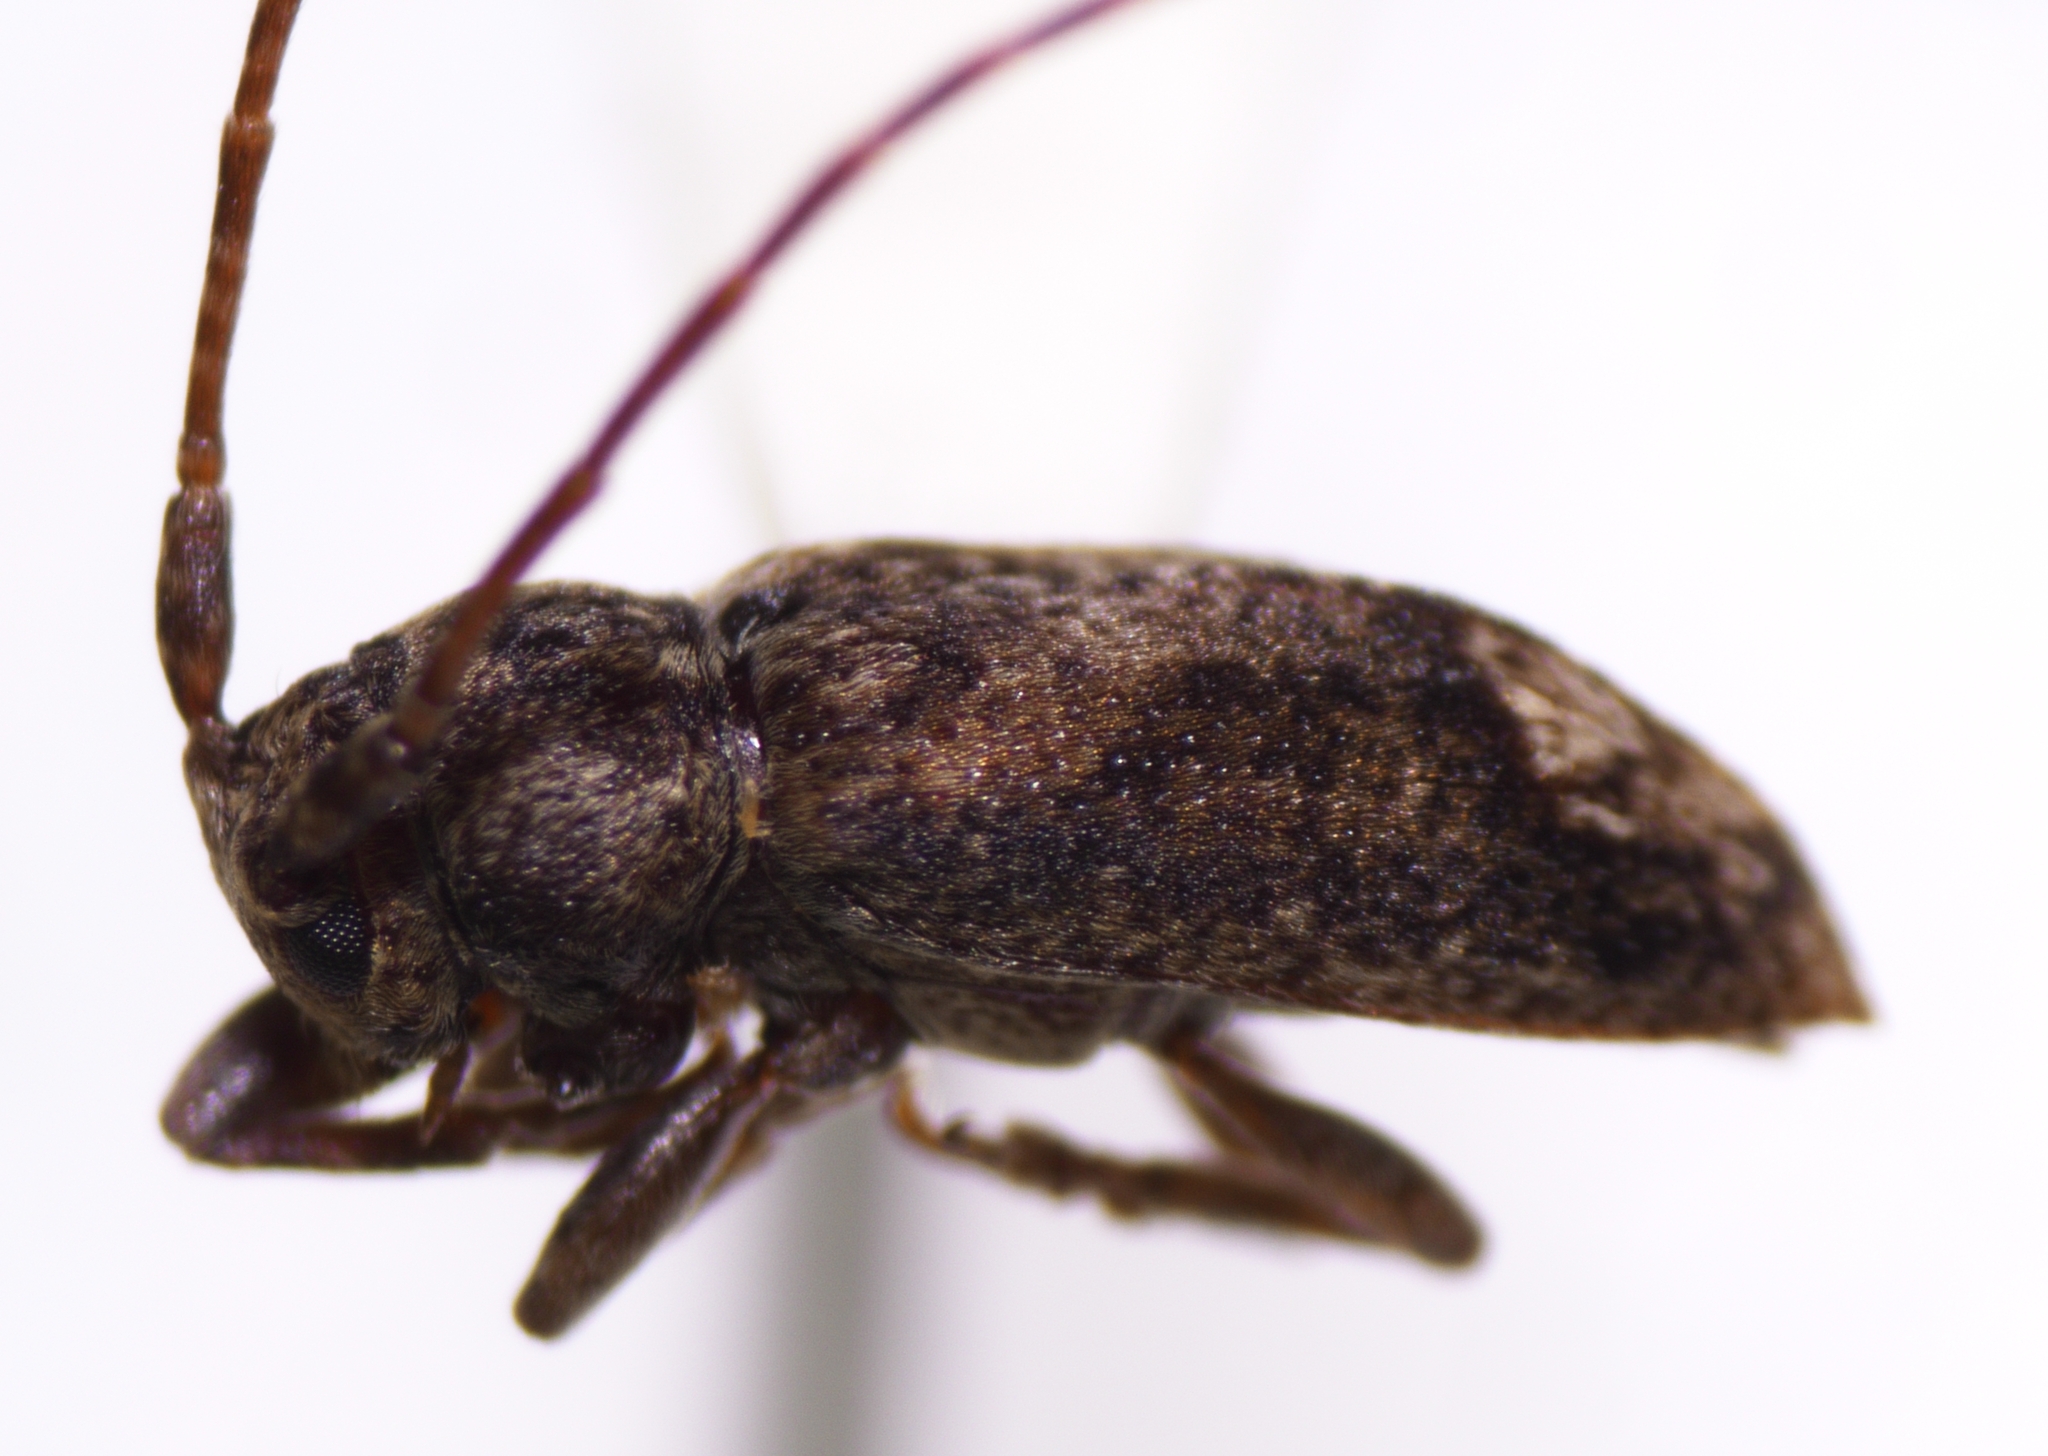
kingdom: Animalia
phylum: Arthropoda
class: Insecta
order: Coleoptera
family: Cerambycidae
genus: Pterolophia
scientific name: Pterolophia lateripicta
